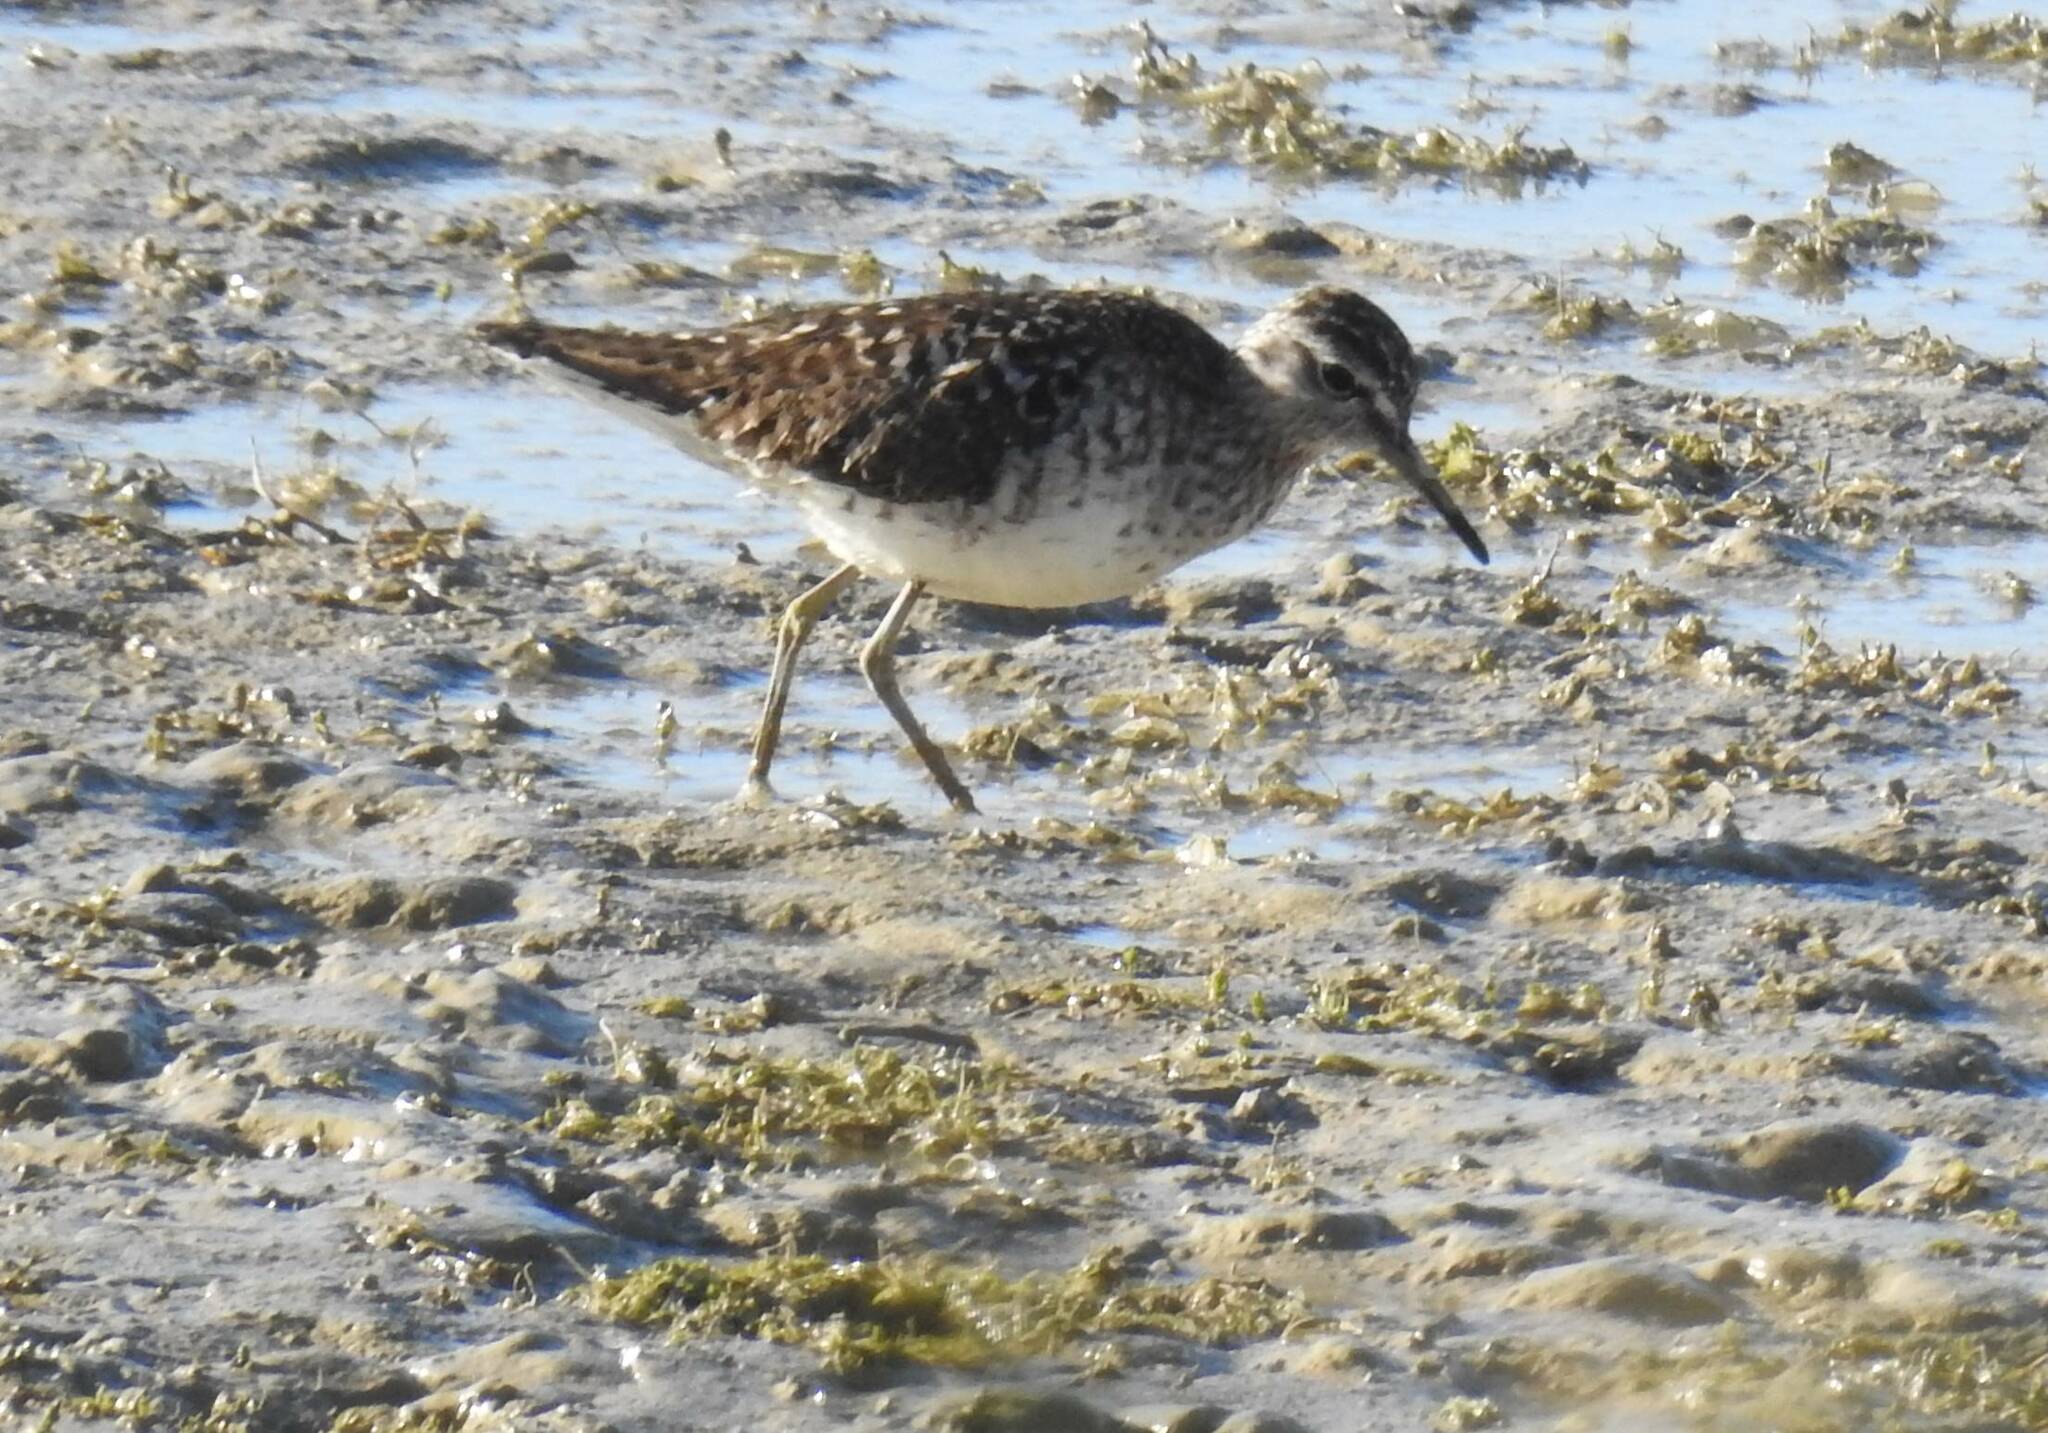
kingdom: Animalia
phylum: Chordata
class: Aves
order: Charadriiformes
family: Scolopacidae
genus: Tringa
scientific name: Tringa glareola
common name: Wood sandpiper
